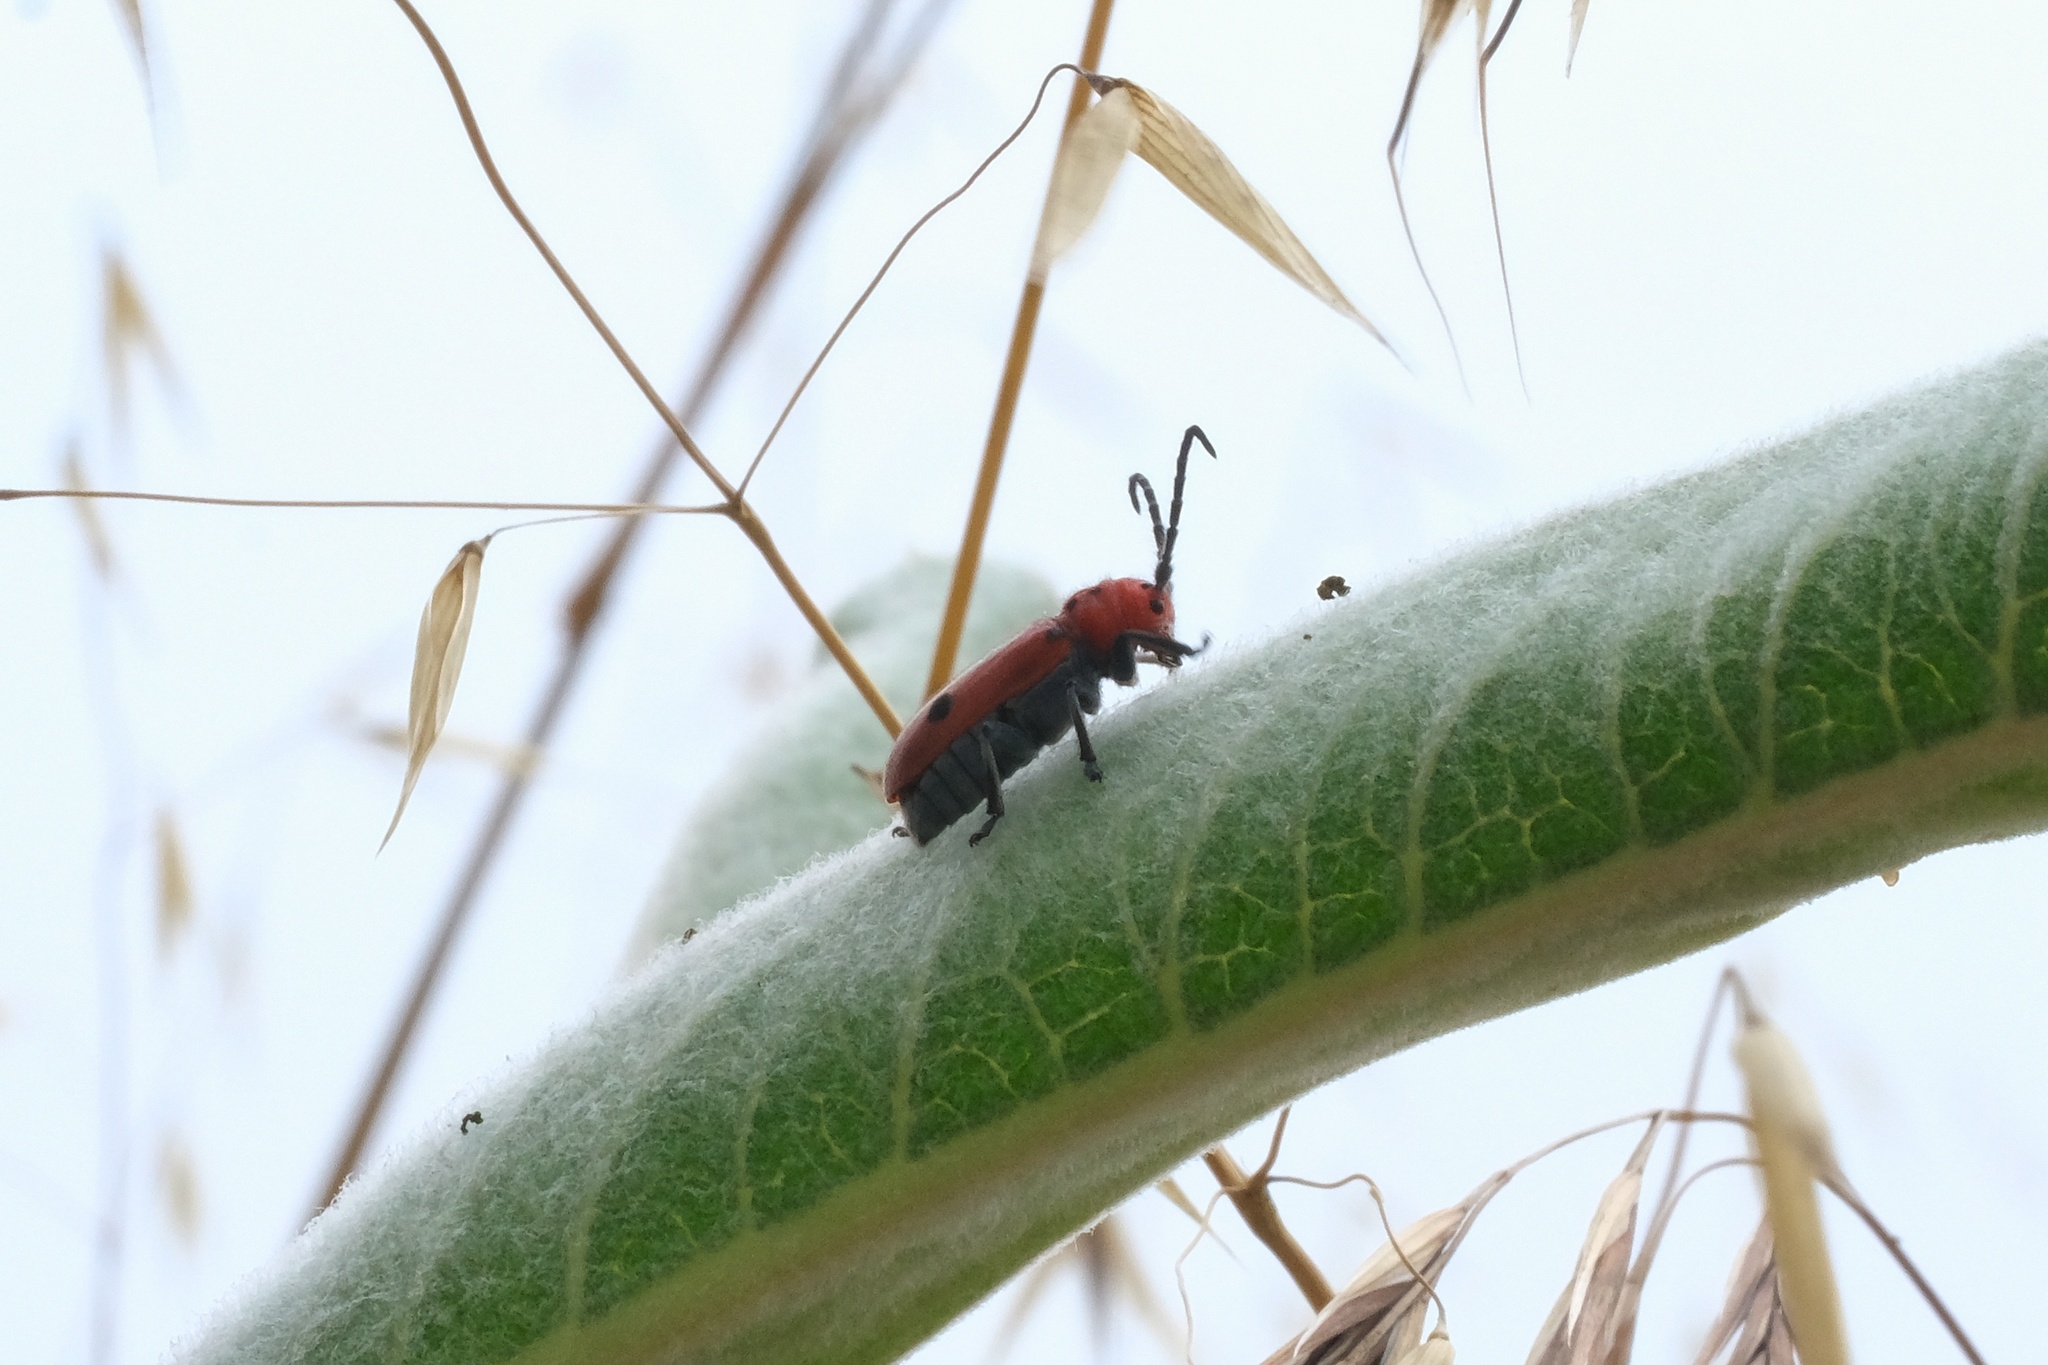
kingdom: Animalia
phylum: Arthropoda
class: Insecta
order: Coleoptera
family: Cerambycidae
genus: Tetraopes
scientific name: Tetraopes basalis
